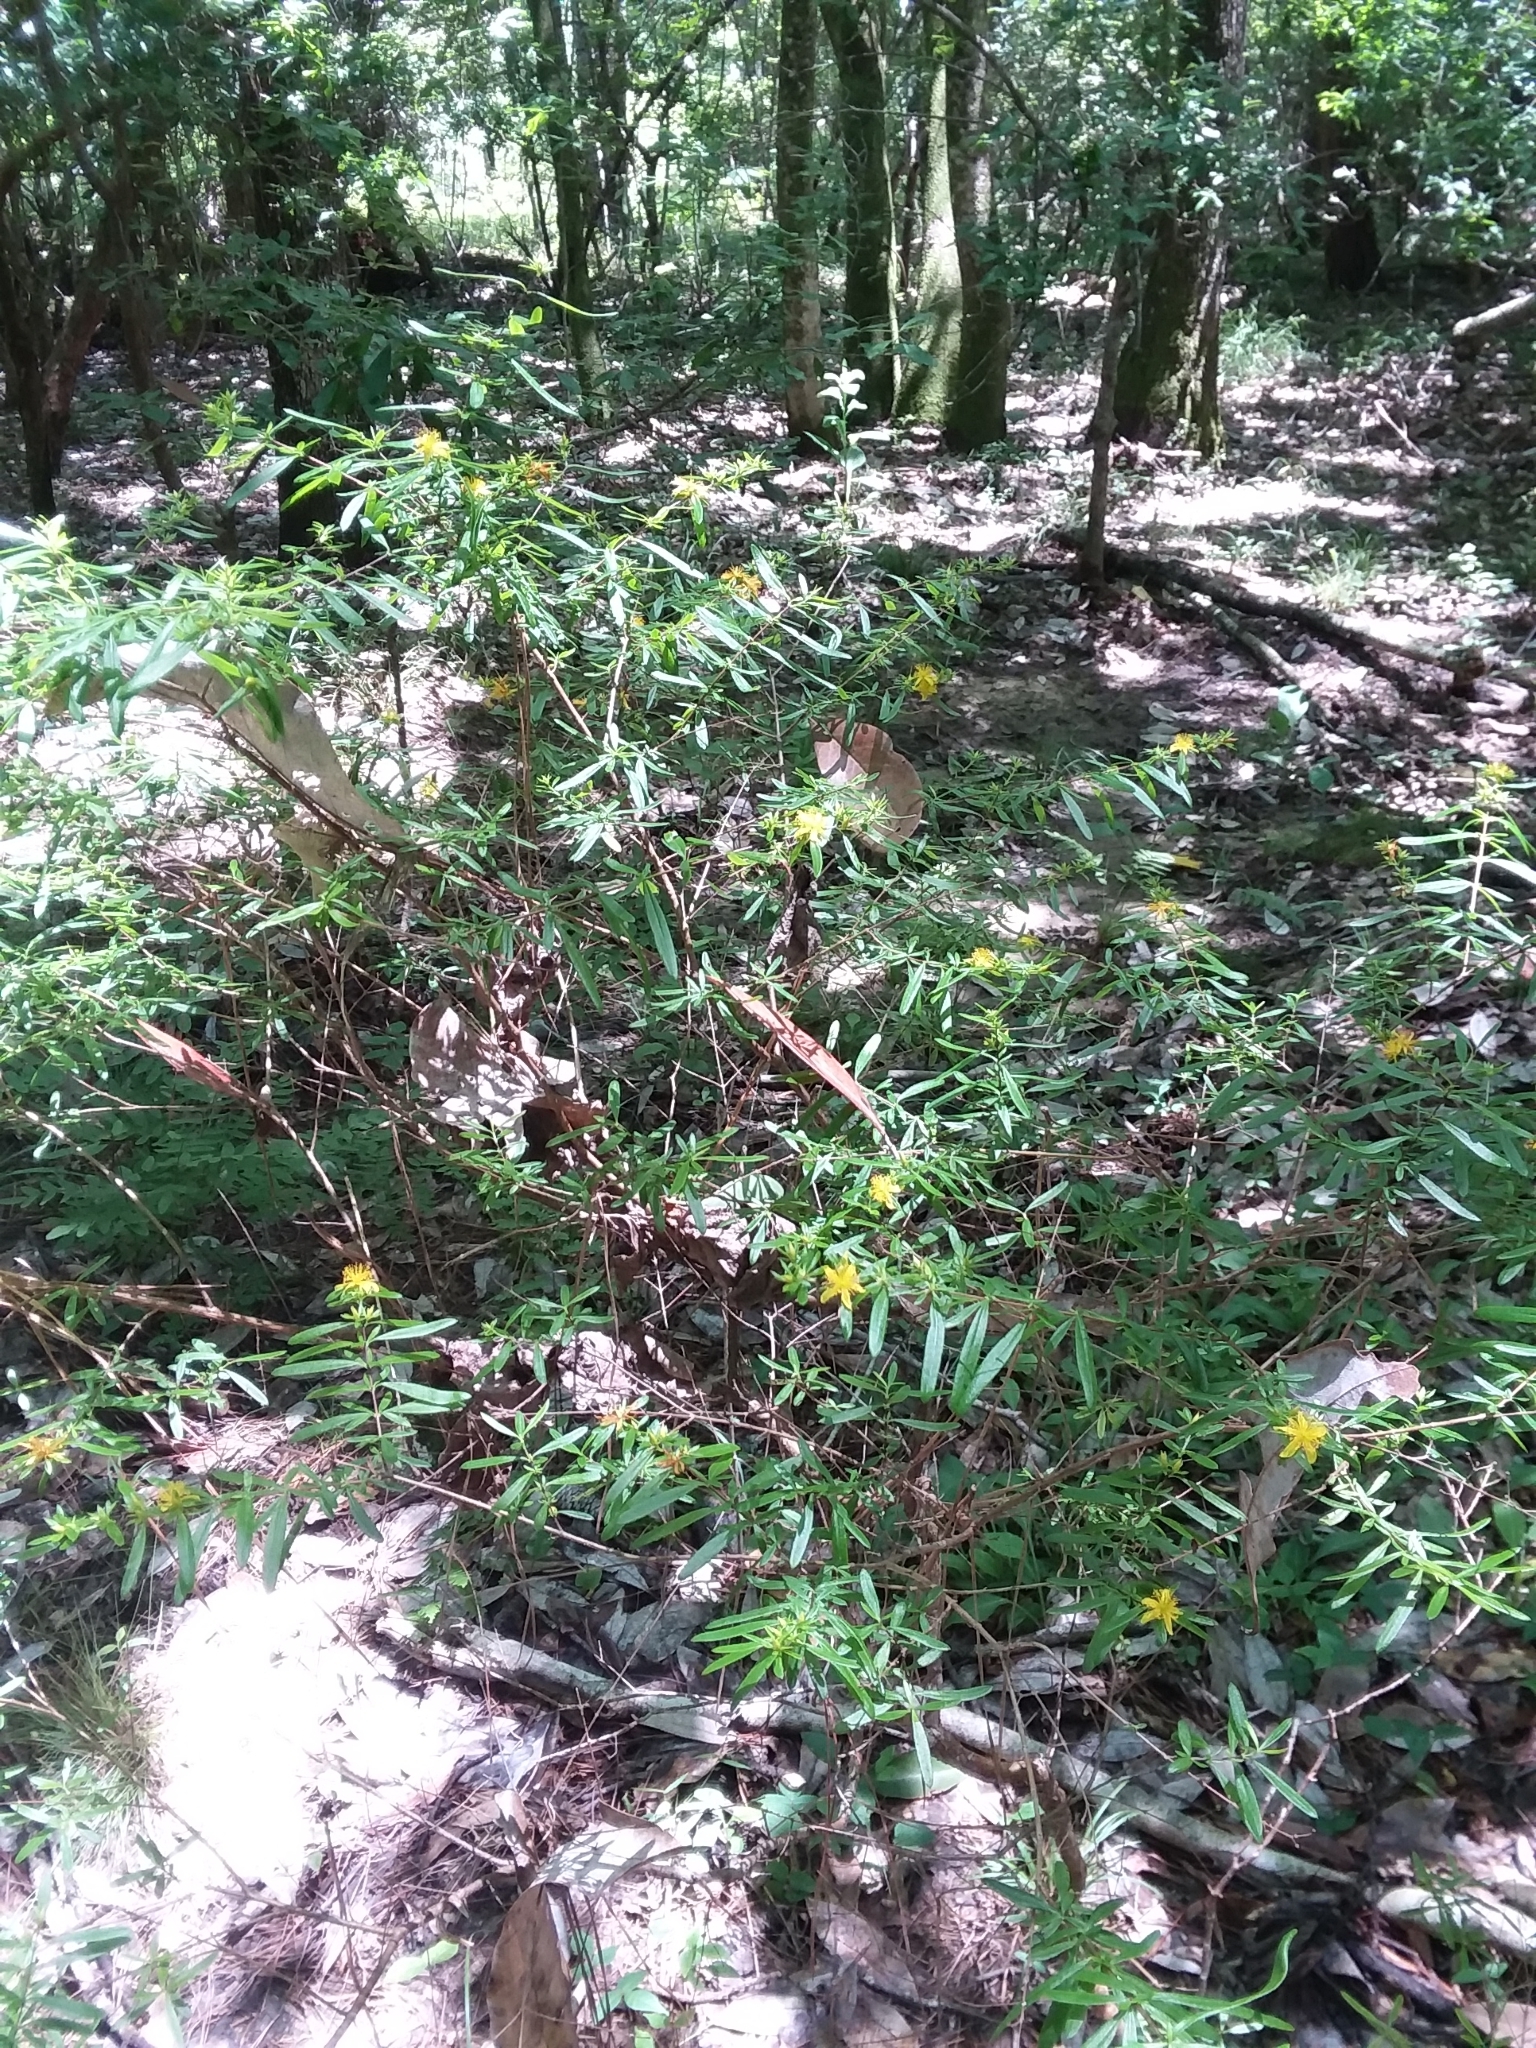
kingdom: Plantae
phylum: Tracheophyta
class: Magnoliopsida
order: Malpighiales
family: Hypericaceae
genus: Hypericum
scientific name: Hypericum galioides
